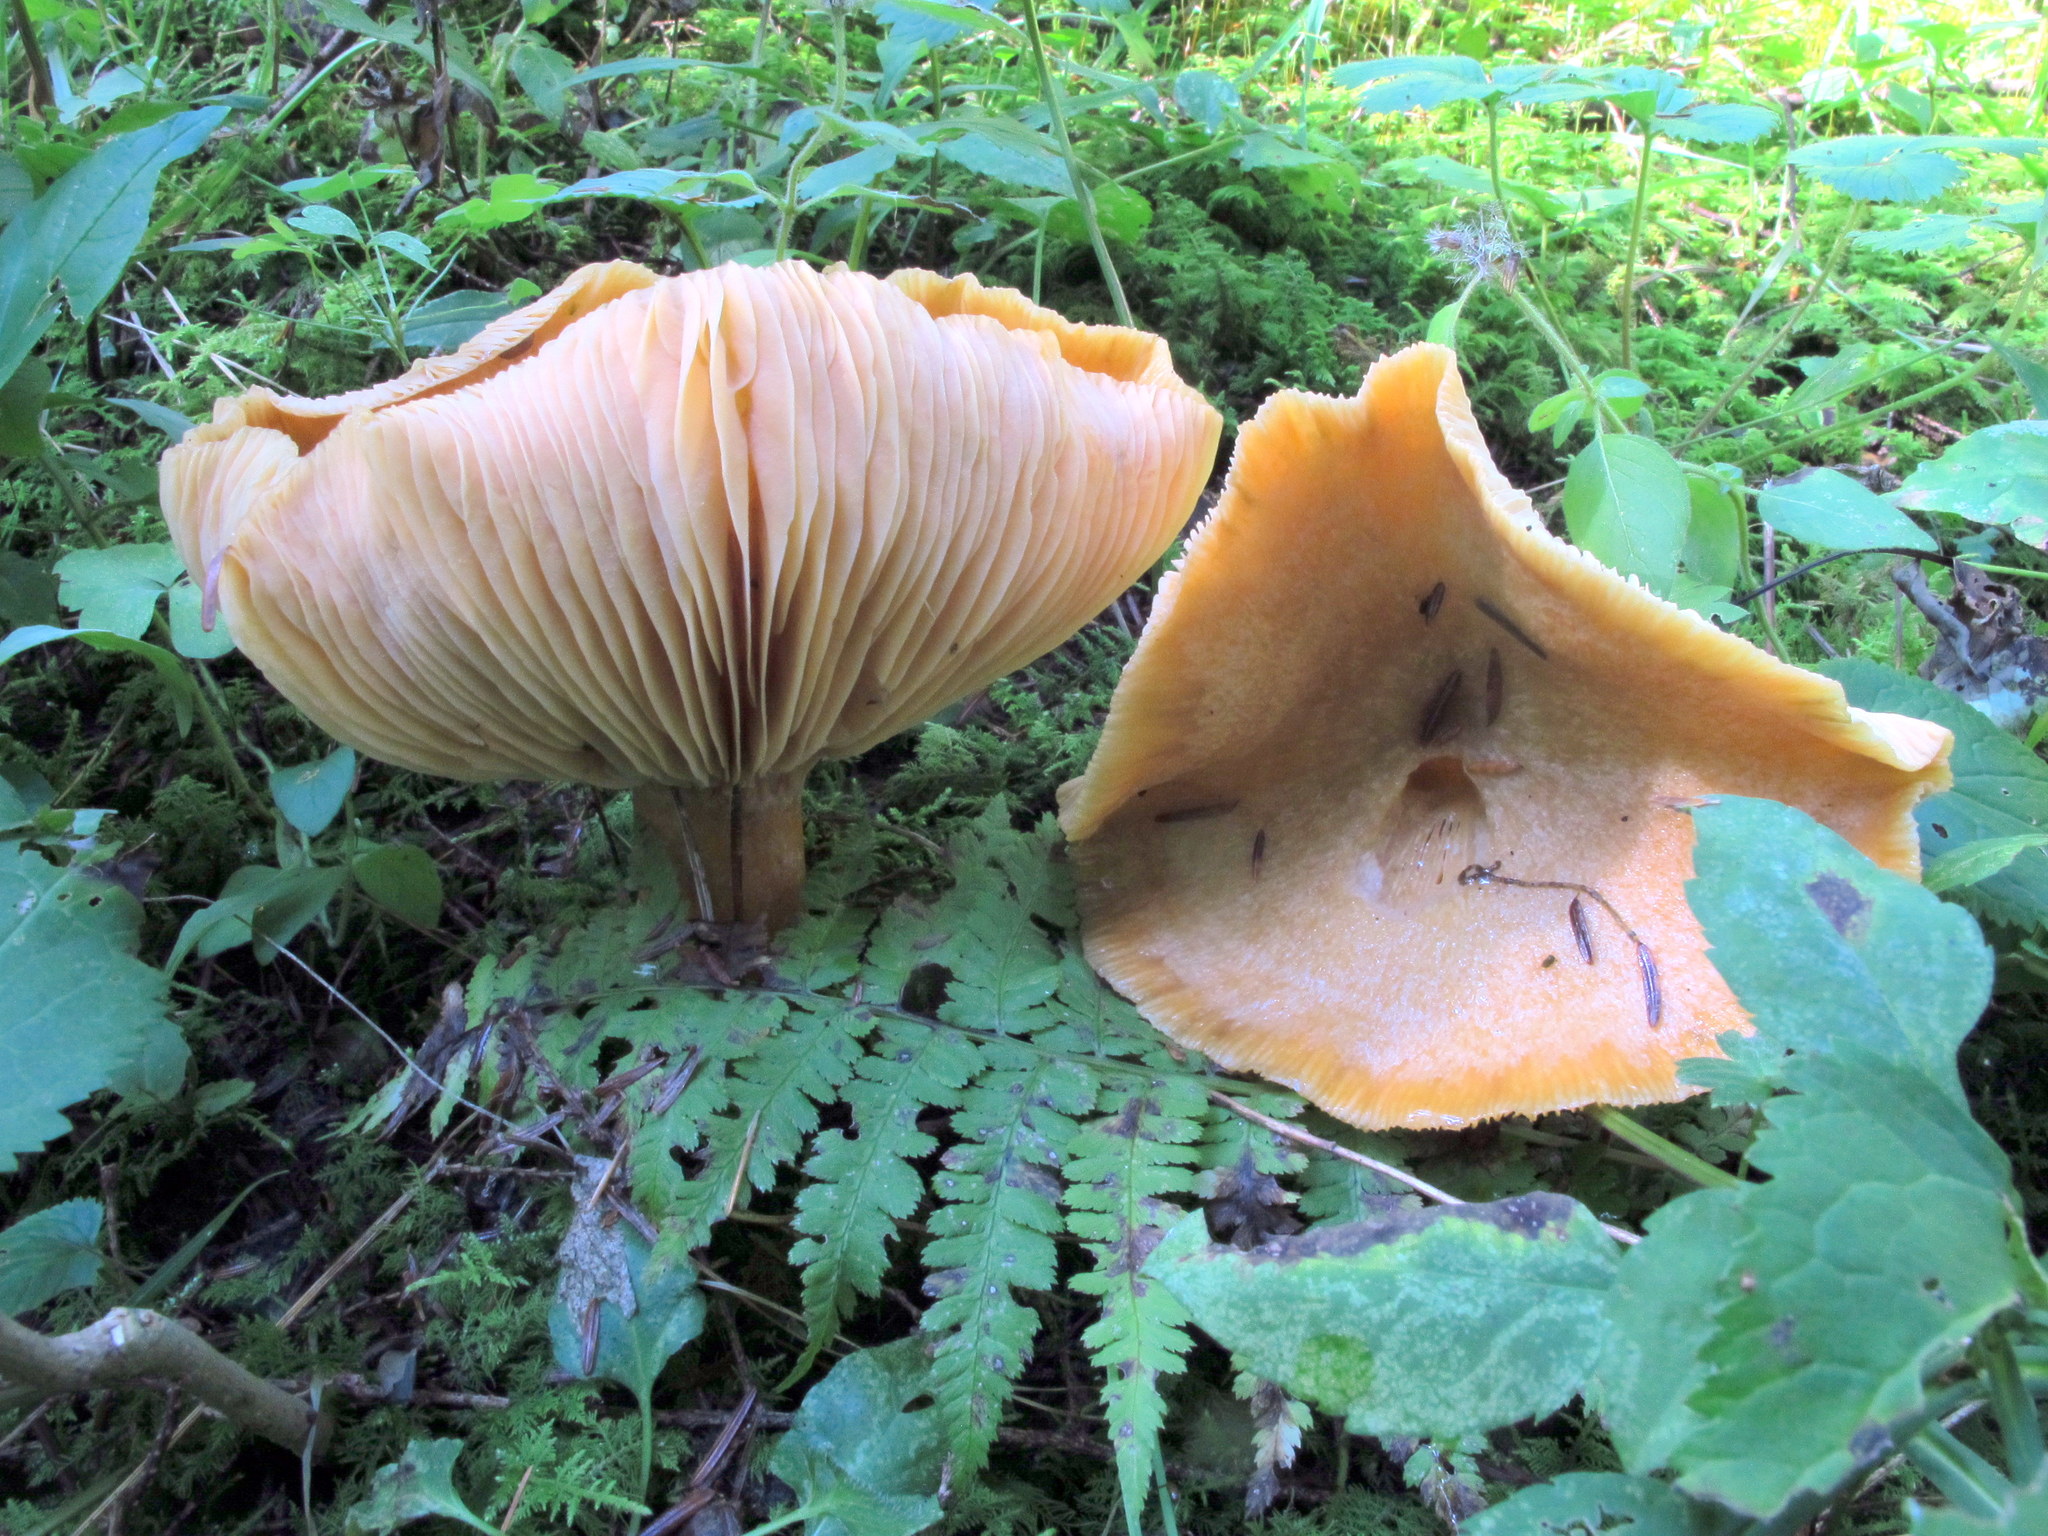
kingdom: Fungi
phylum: Basidiomycota
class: Agaricomycetes
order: Russulales
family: Russulaceae
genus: Lactarius
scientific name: Lactarius deterrimus
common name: False saffron milkcap
